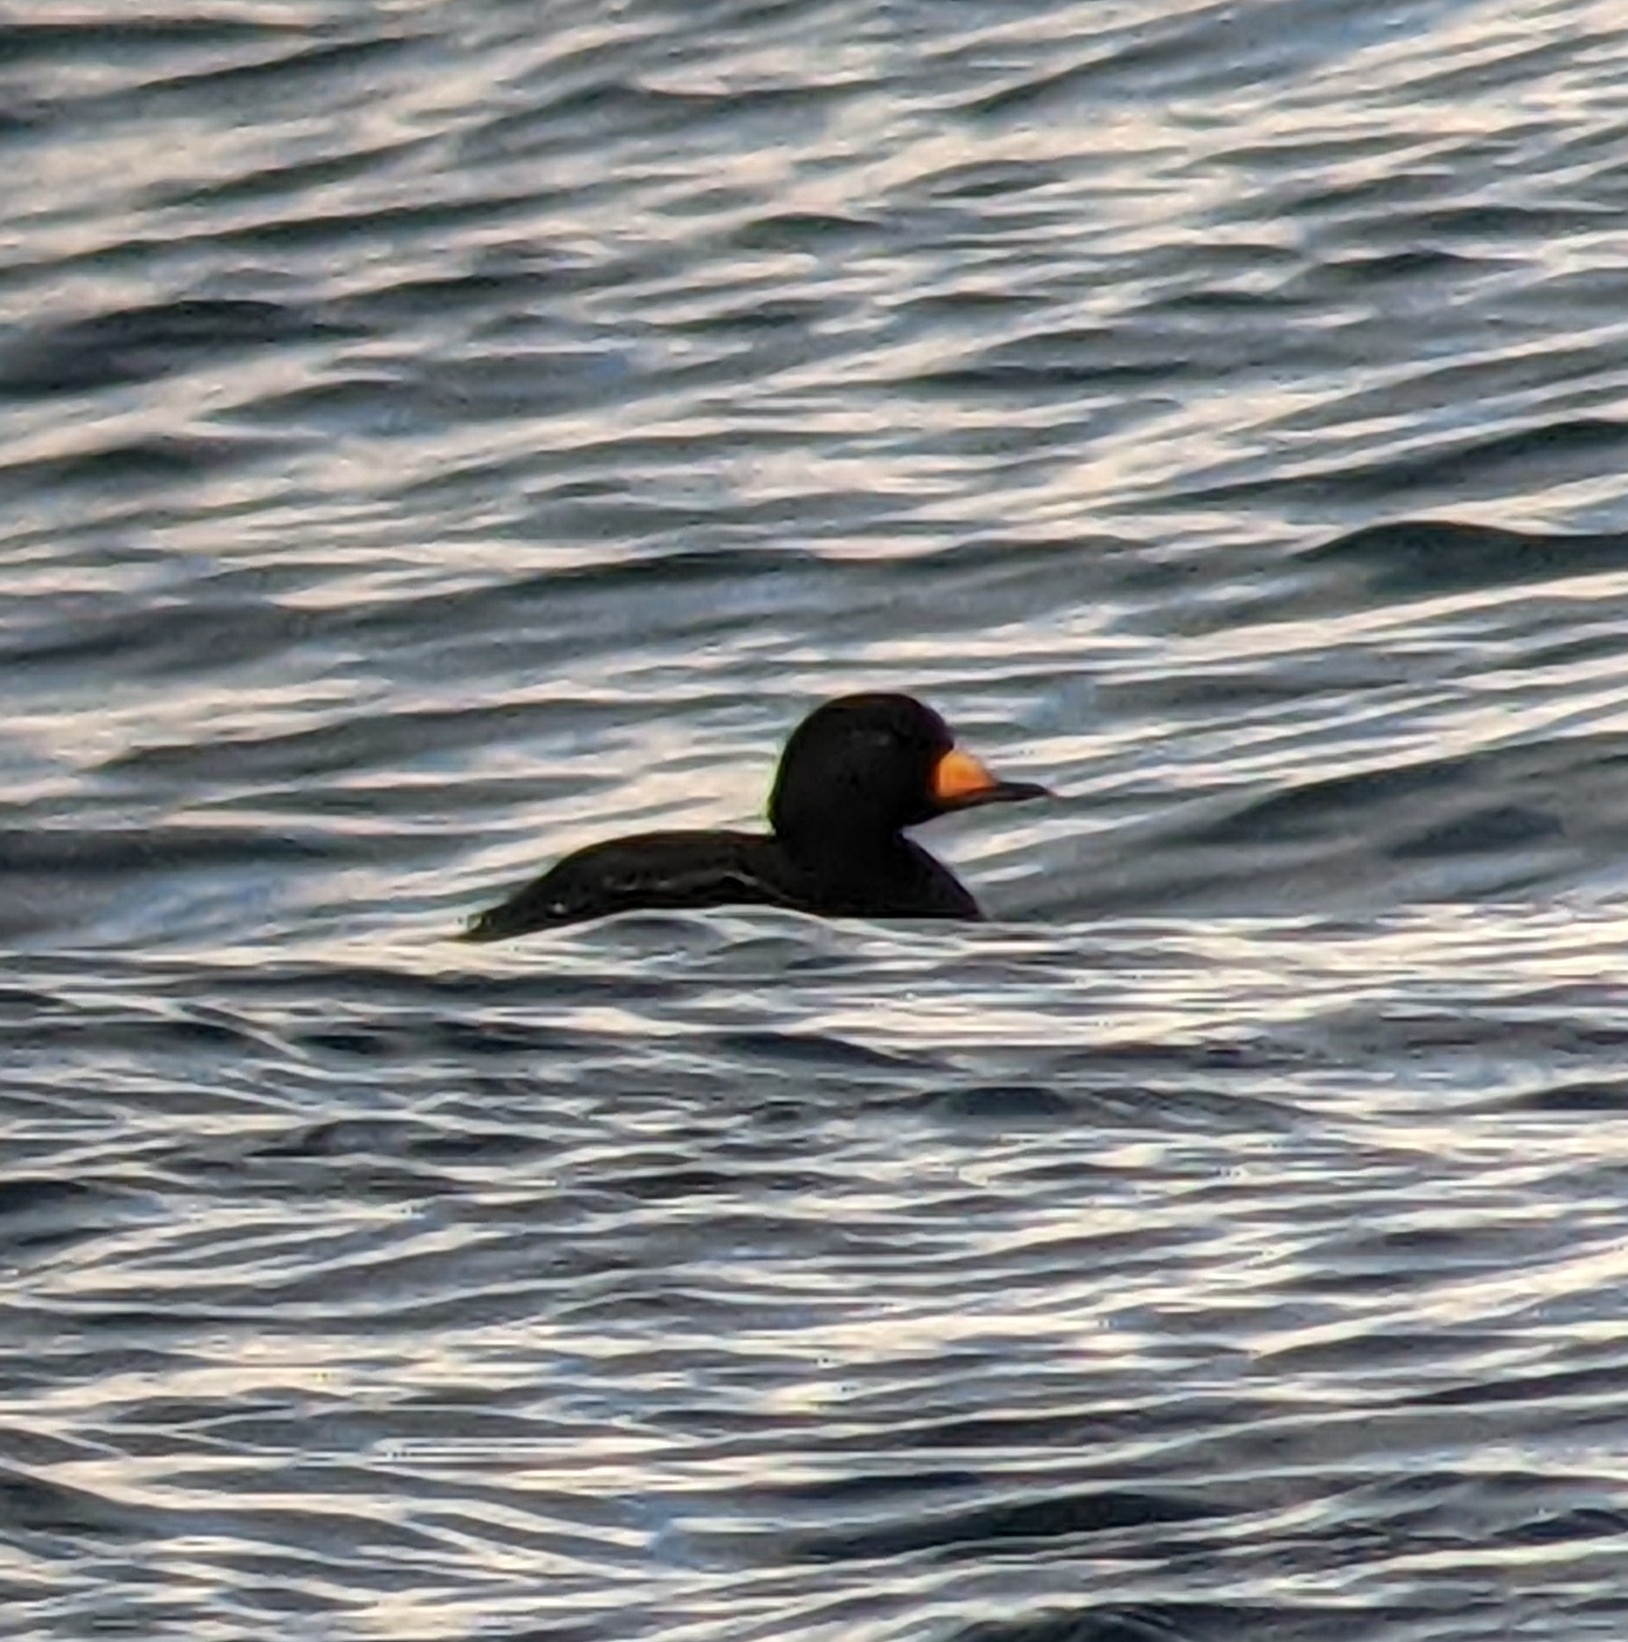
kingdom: Animalia
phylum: Chordata
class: Aves
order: Anseriformes
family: Anatidae
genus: Melanitta
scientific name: Melanitta americana
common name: Black scoter
